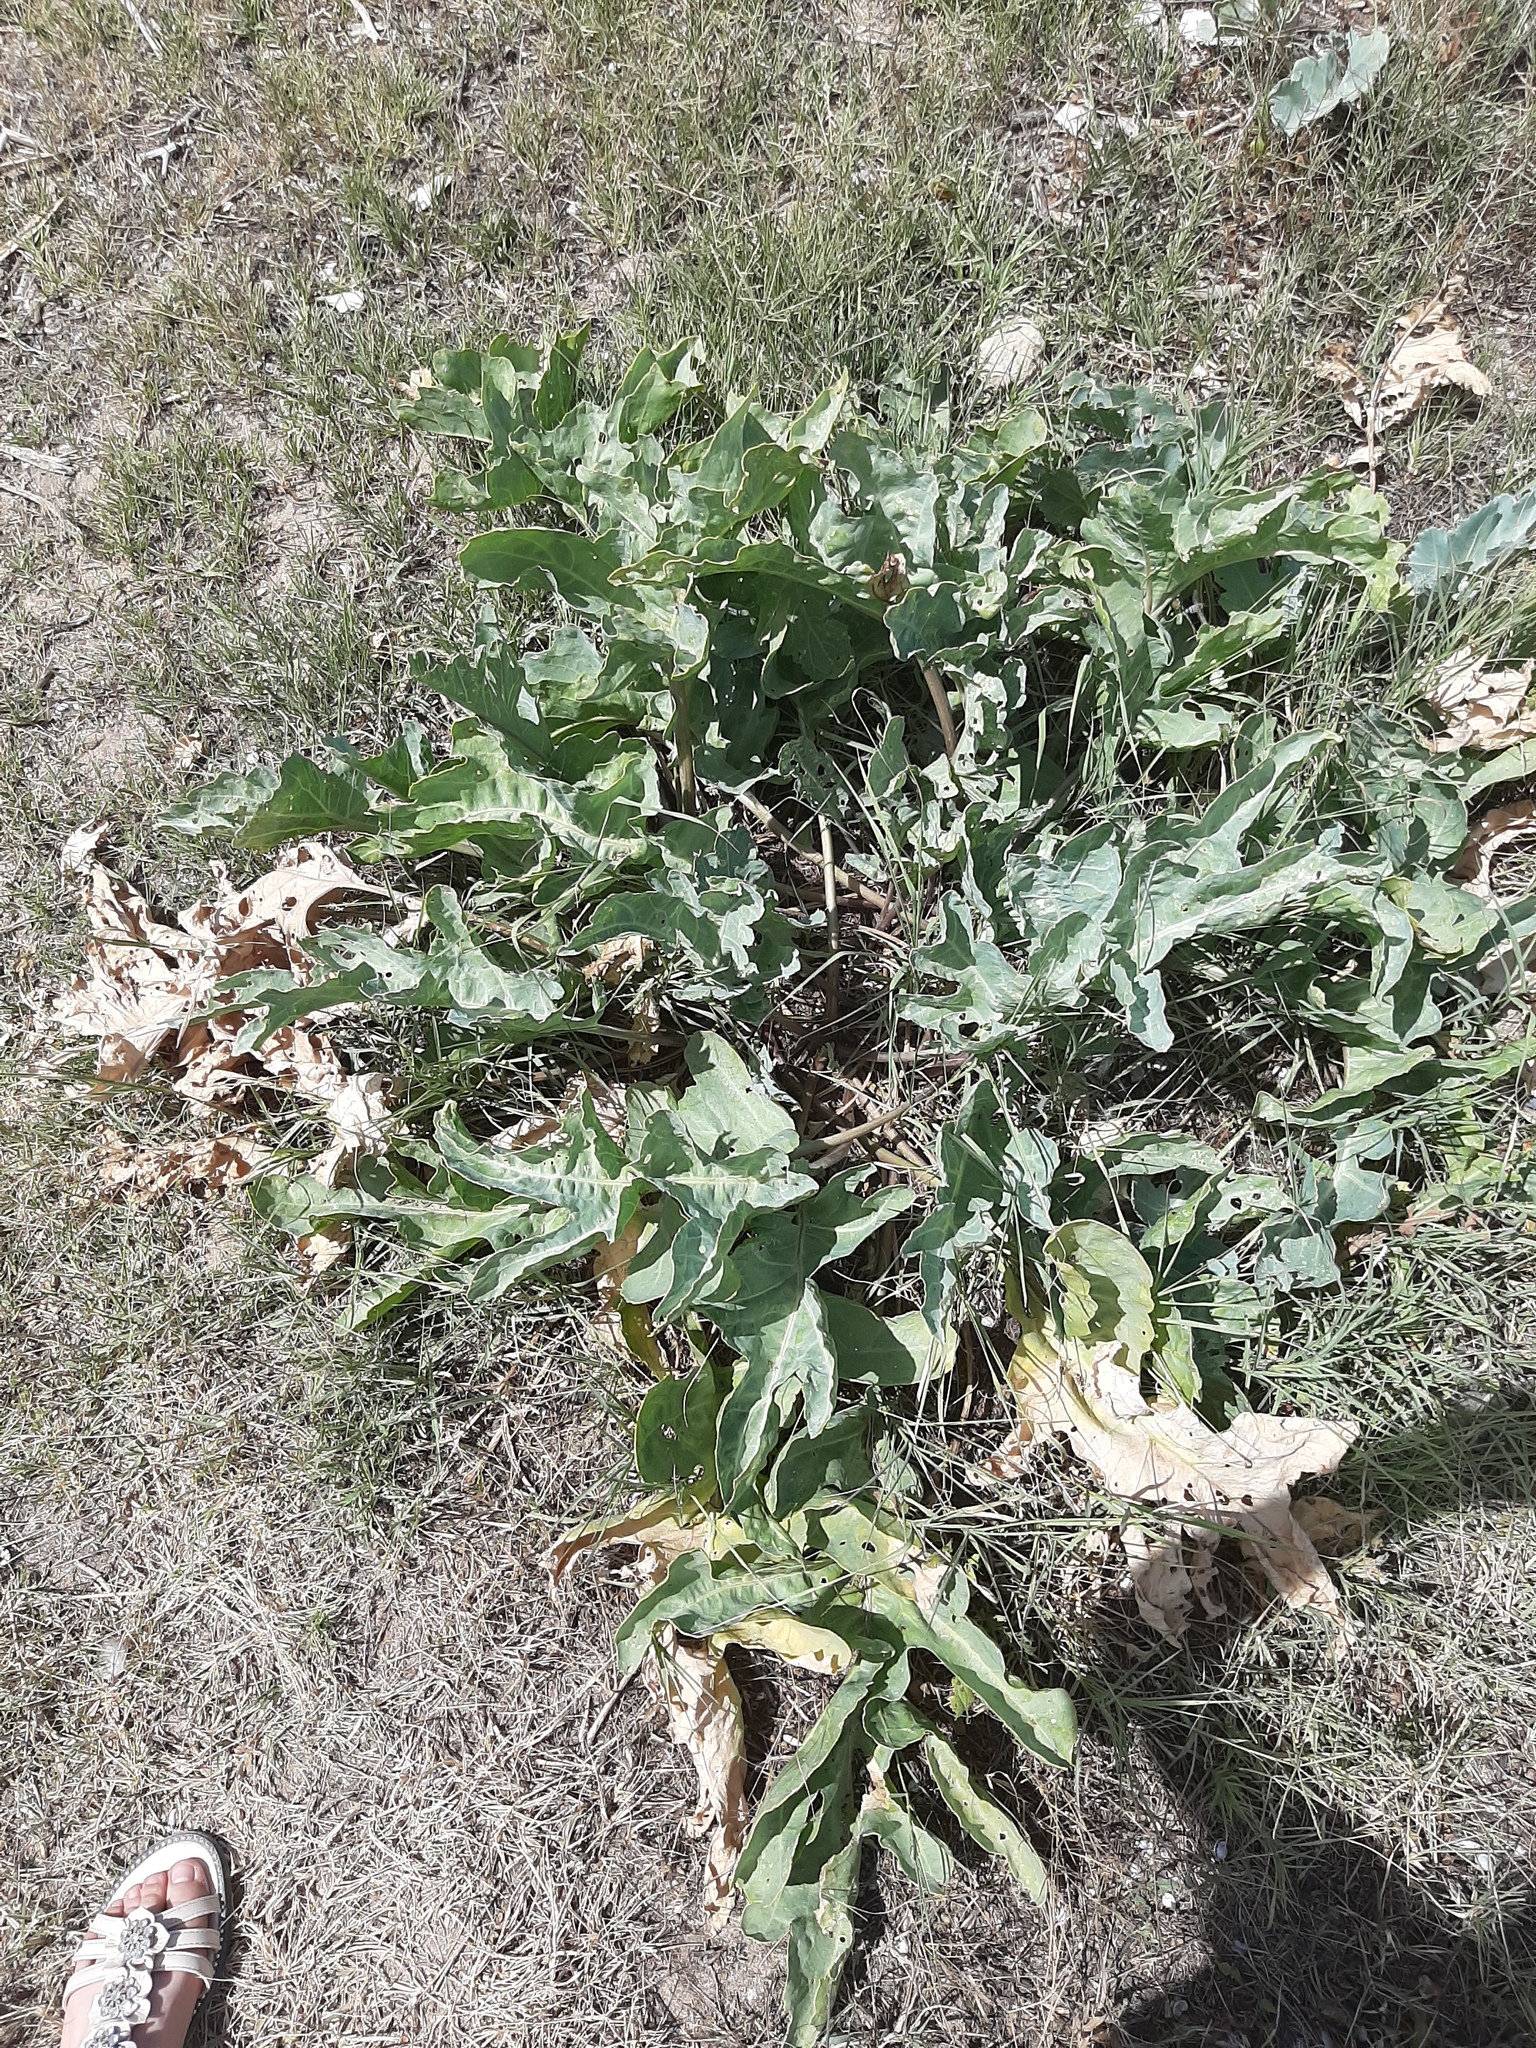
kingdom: Plantae
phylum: Tracheophyta
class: Magnoliopsida
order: Brassicales
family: Brassicaceae
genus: Crambe
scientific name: Crambe
